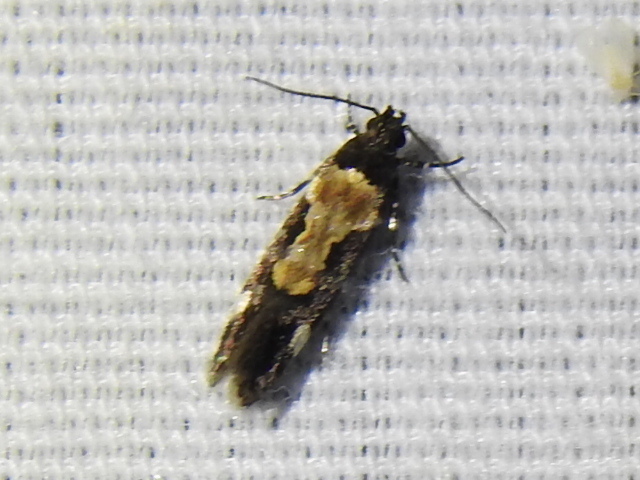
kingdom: Animalia
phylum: Arthropoda
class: Insecta
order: Lepidoptera
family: Gelechiidae
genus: Stegasta
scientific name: Stegasta bosqueella
